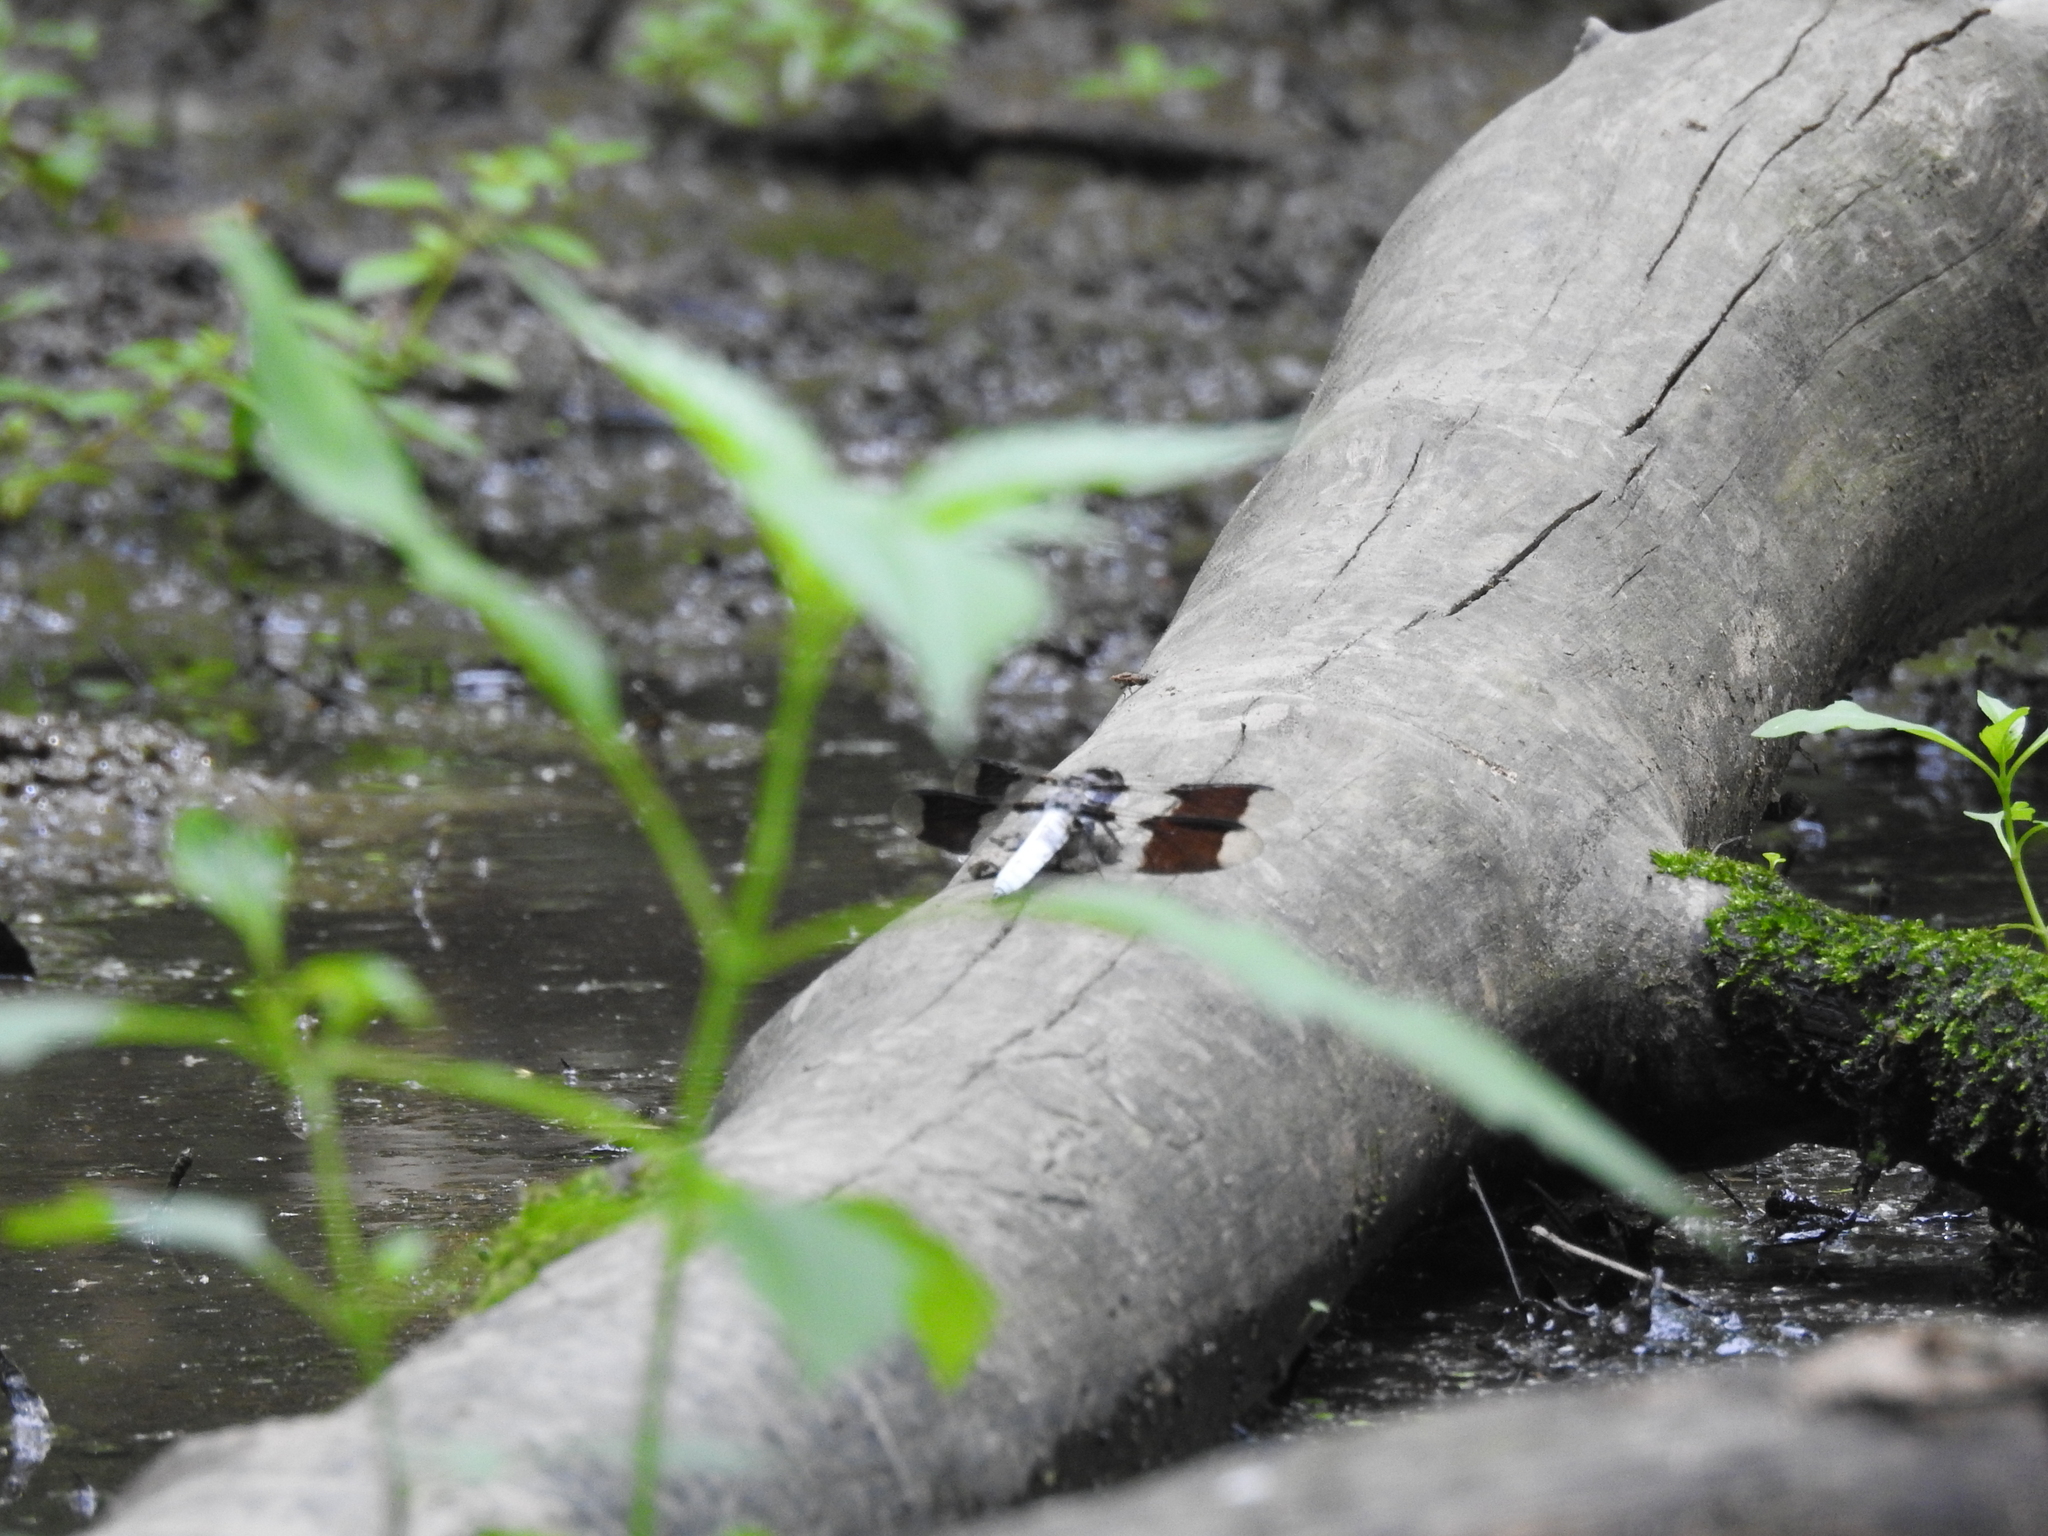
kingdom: Animalia
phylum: Arthropoda
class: Insecta
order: Odonata
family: Libellulidae
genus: Plathemis
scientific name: Plathemis lydia
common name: Common whitetail
